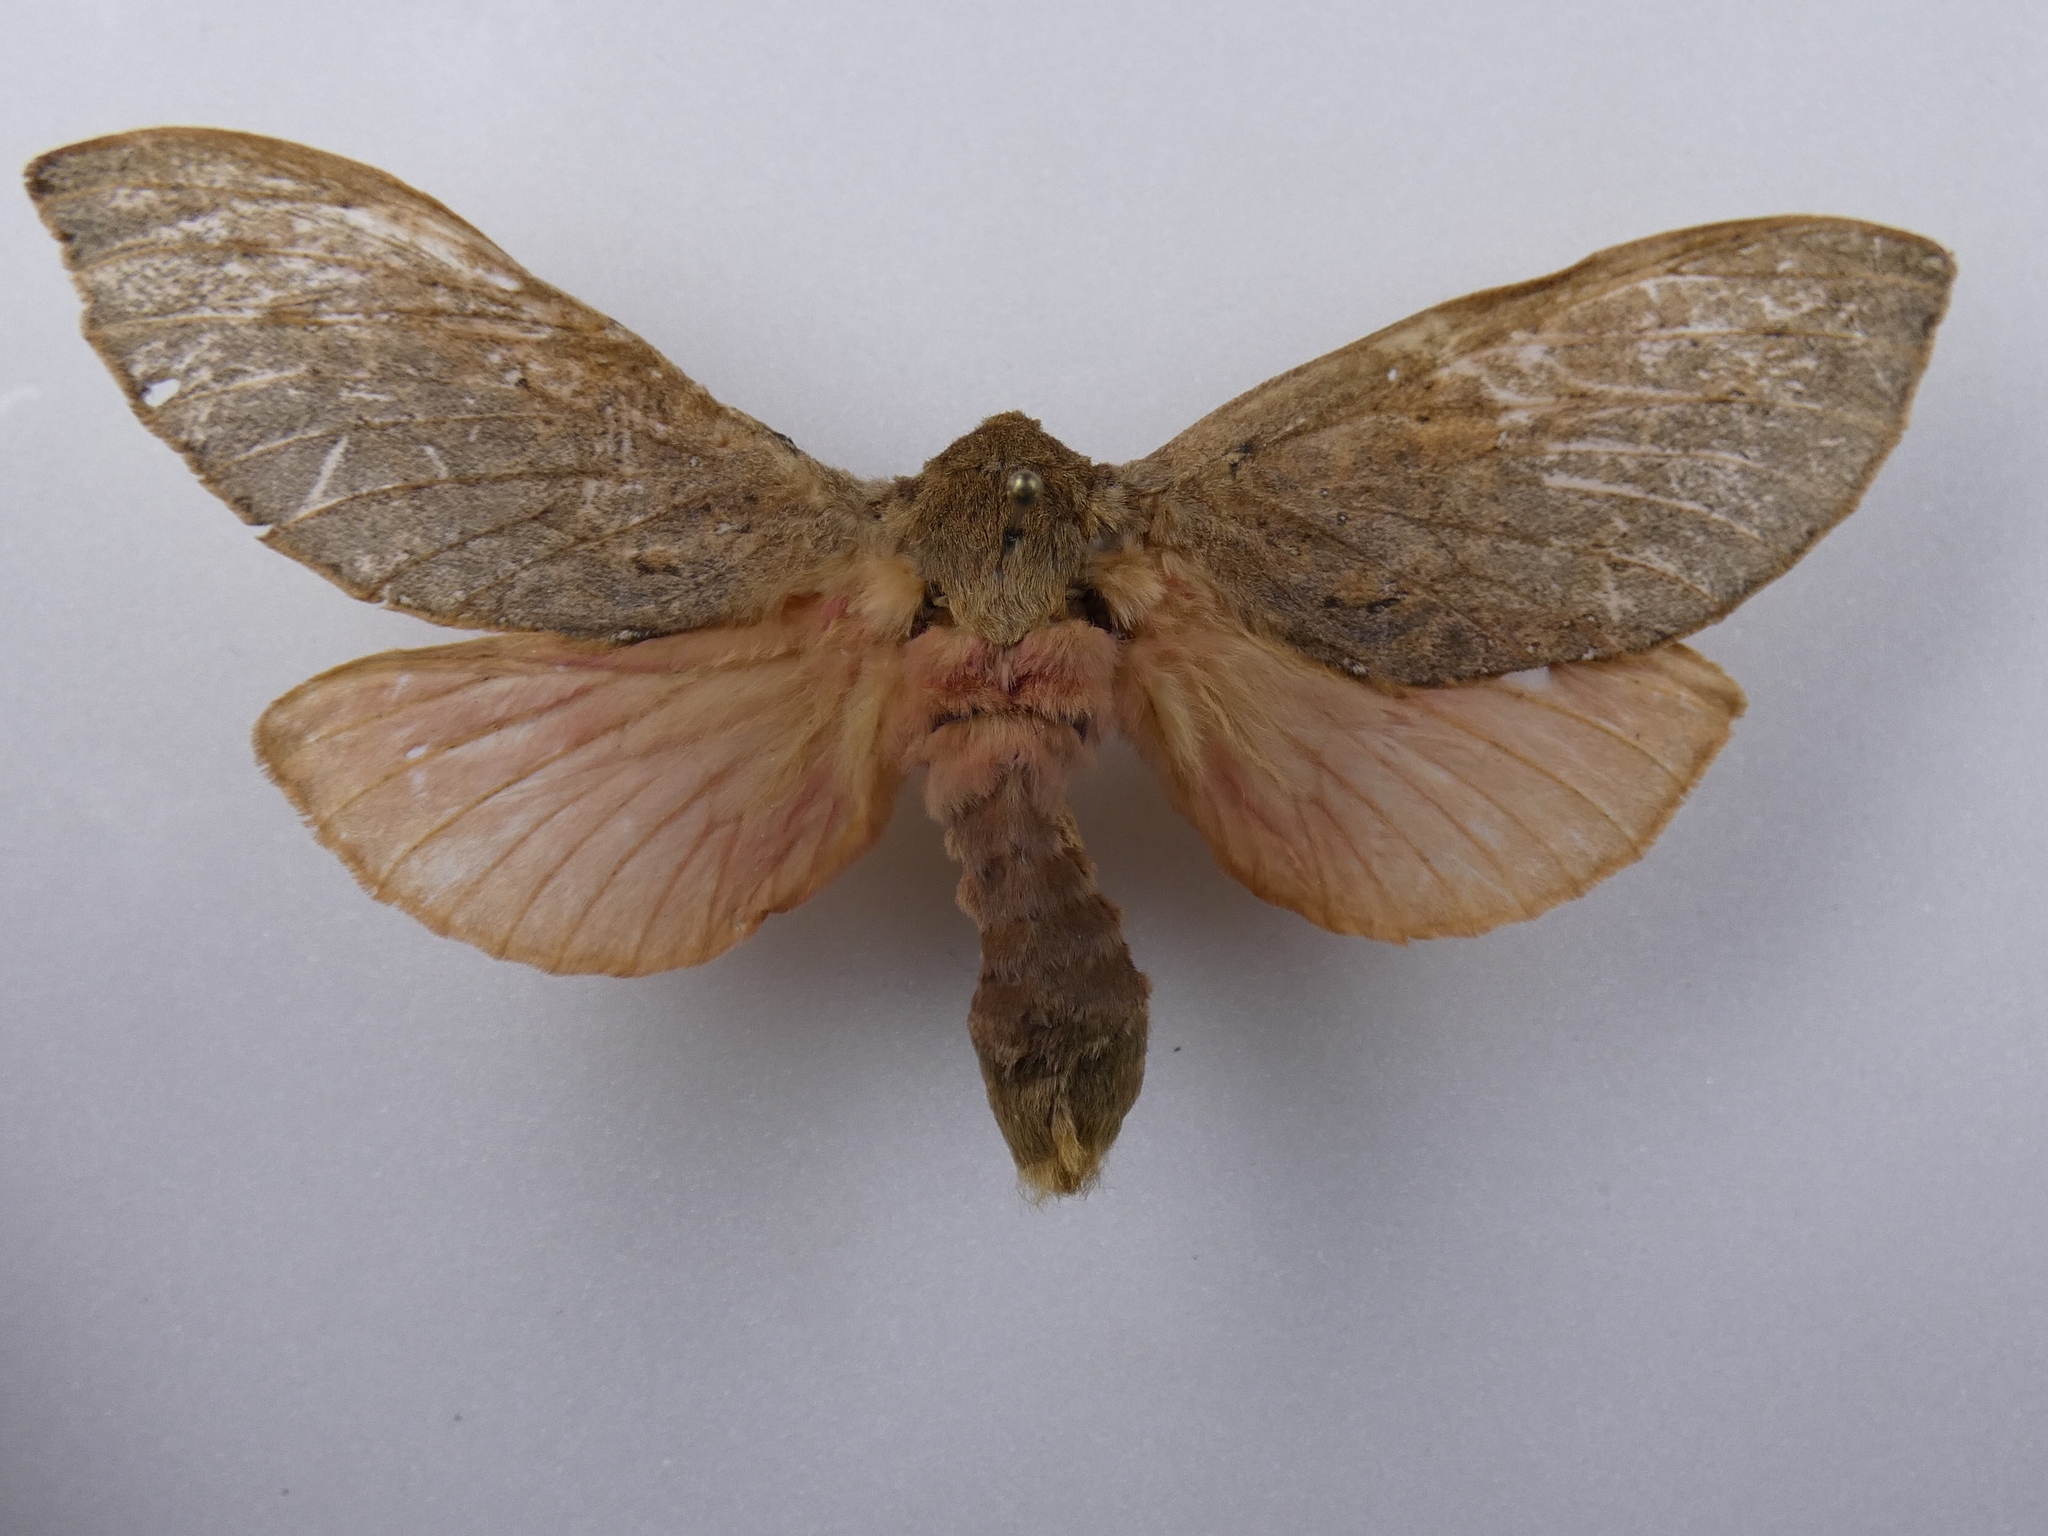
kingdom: Animalia
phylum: Arthropoda
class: Insecta
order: Lepidoptera
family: Hepialidae
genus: Dumbletonius
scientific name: Dumbletonius unimaculata
